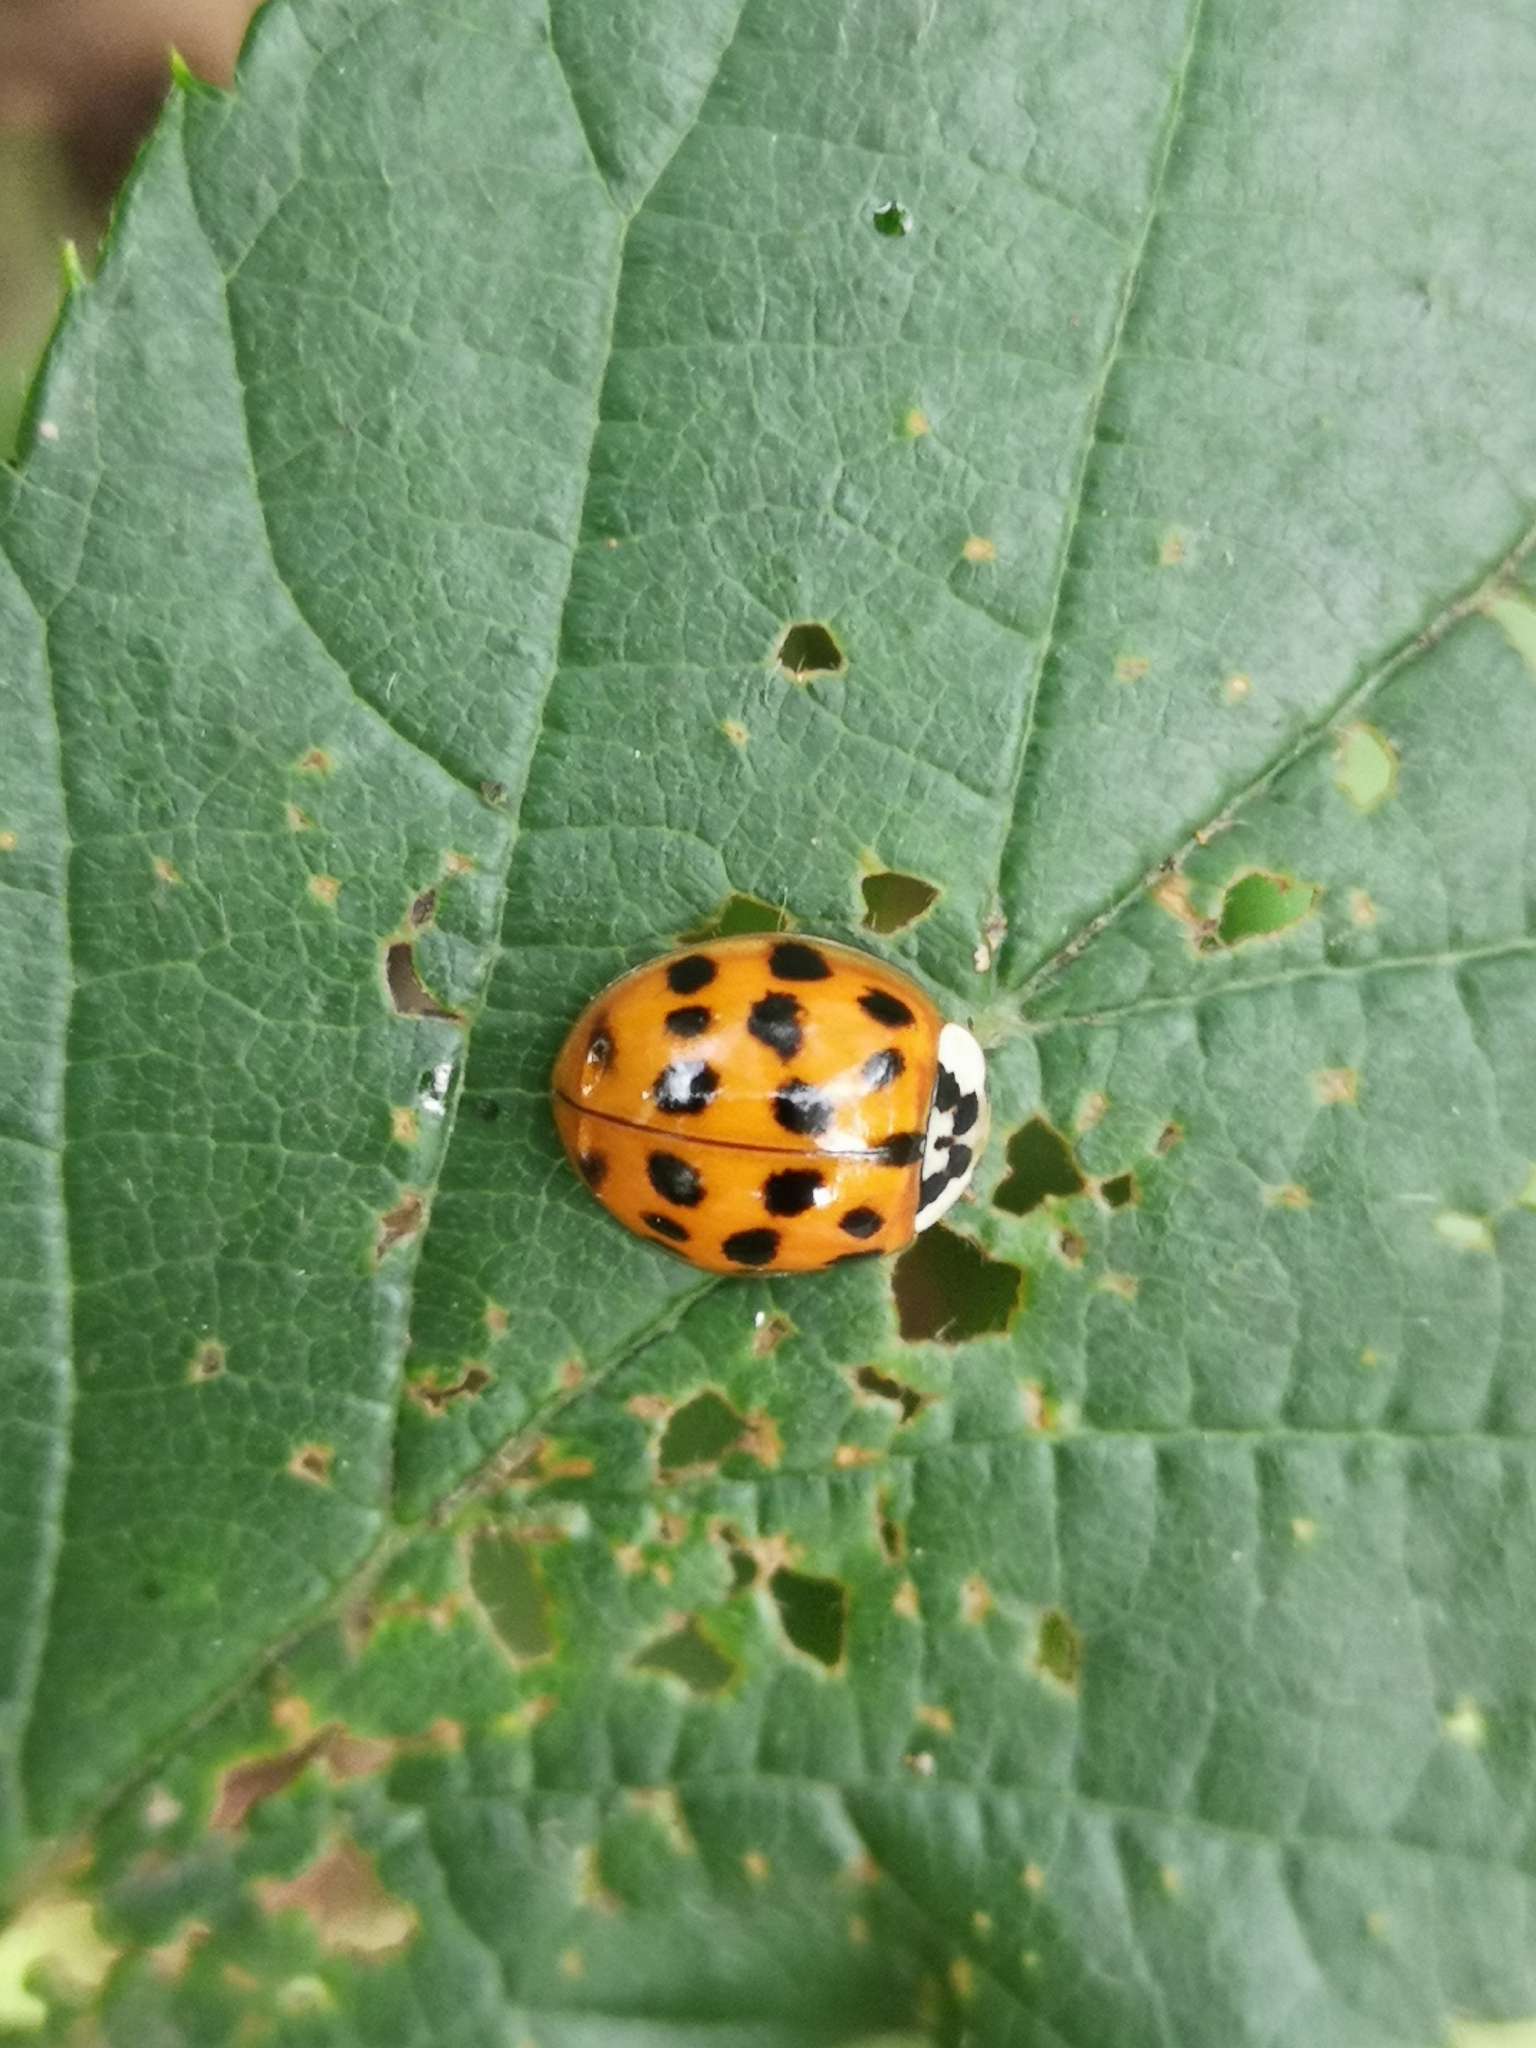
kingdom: Animalia
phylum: Arthropoda
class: Insecta
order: Coleoptera
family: Coccinellidae
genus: Harmonia
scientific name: Harmonia axyridis
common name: Harlequin ladybird
